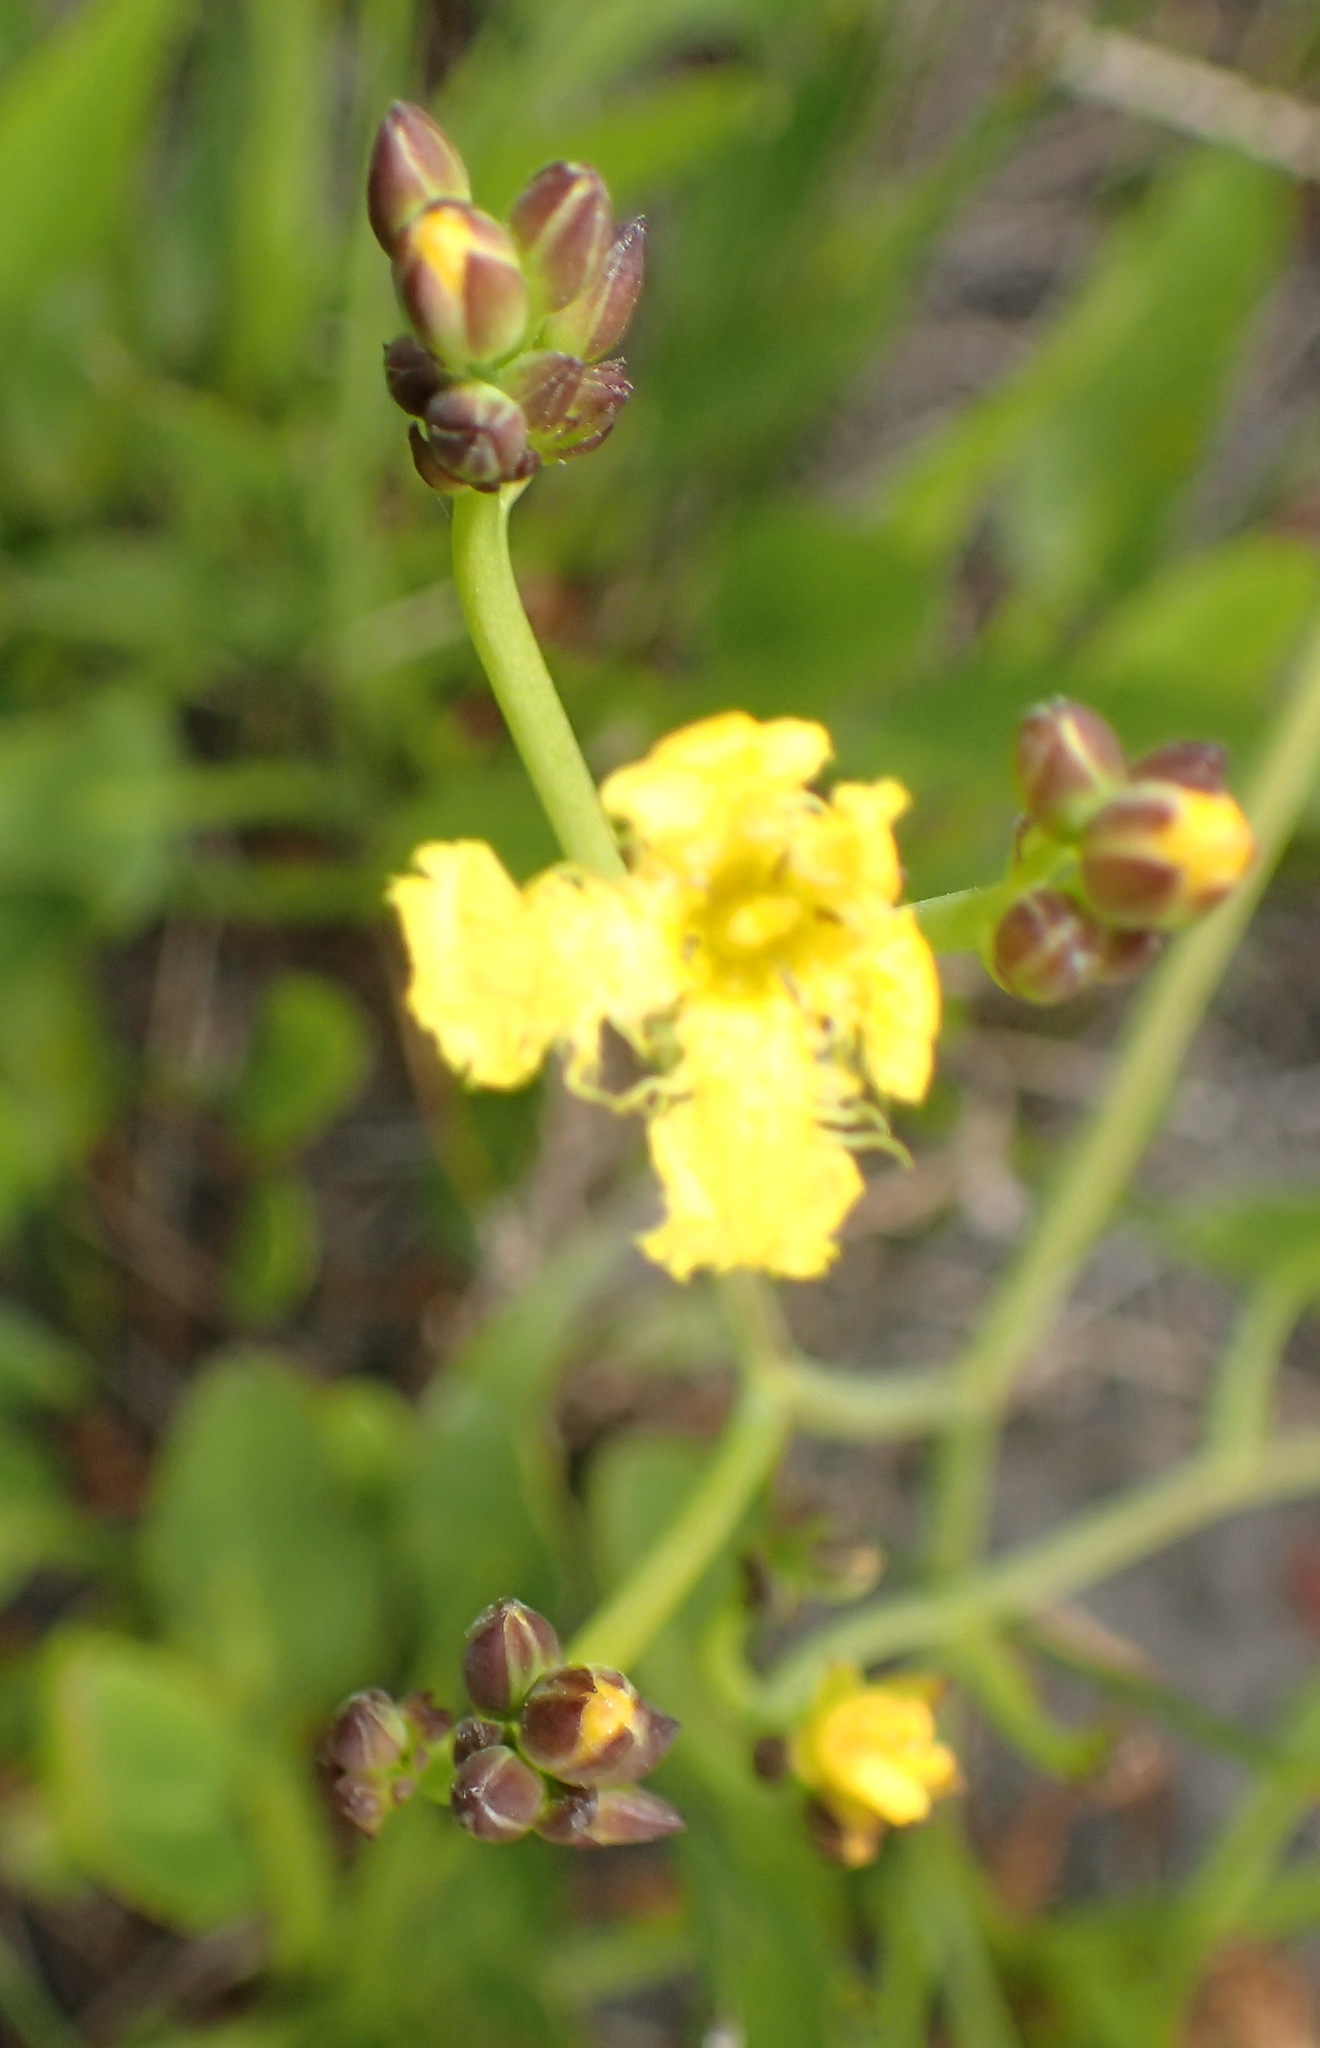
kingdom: Plantae
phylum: Tracheophyta
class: Magnoliopsida
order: Asterales
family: Menyanthaceae
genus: Villarsia
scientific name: Villarsia capensis
